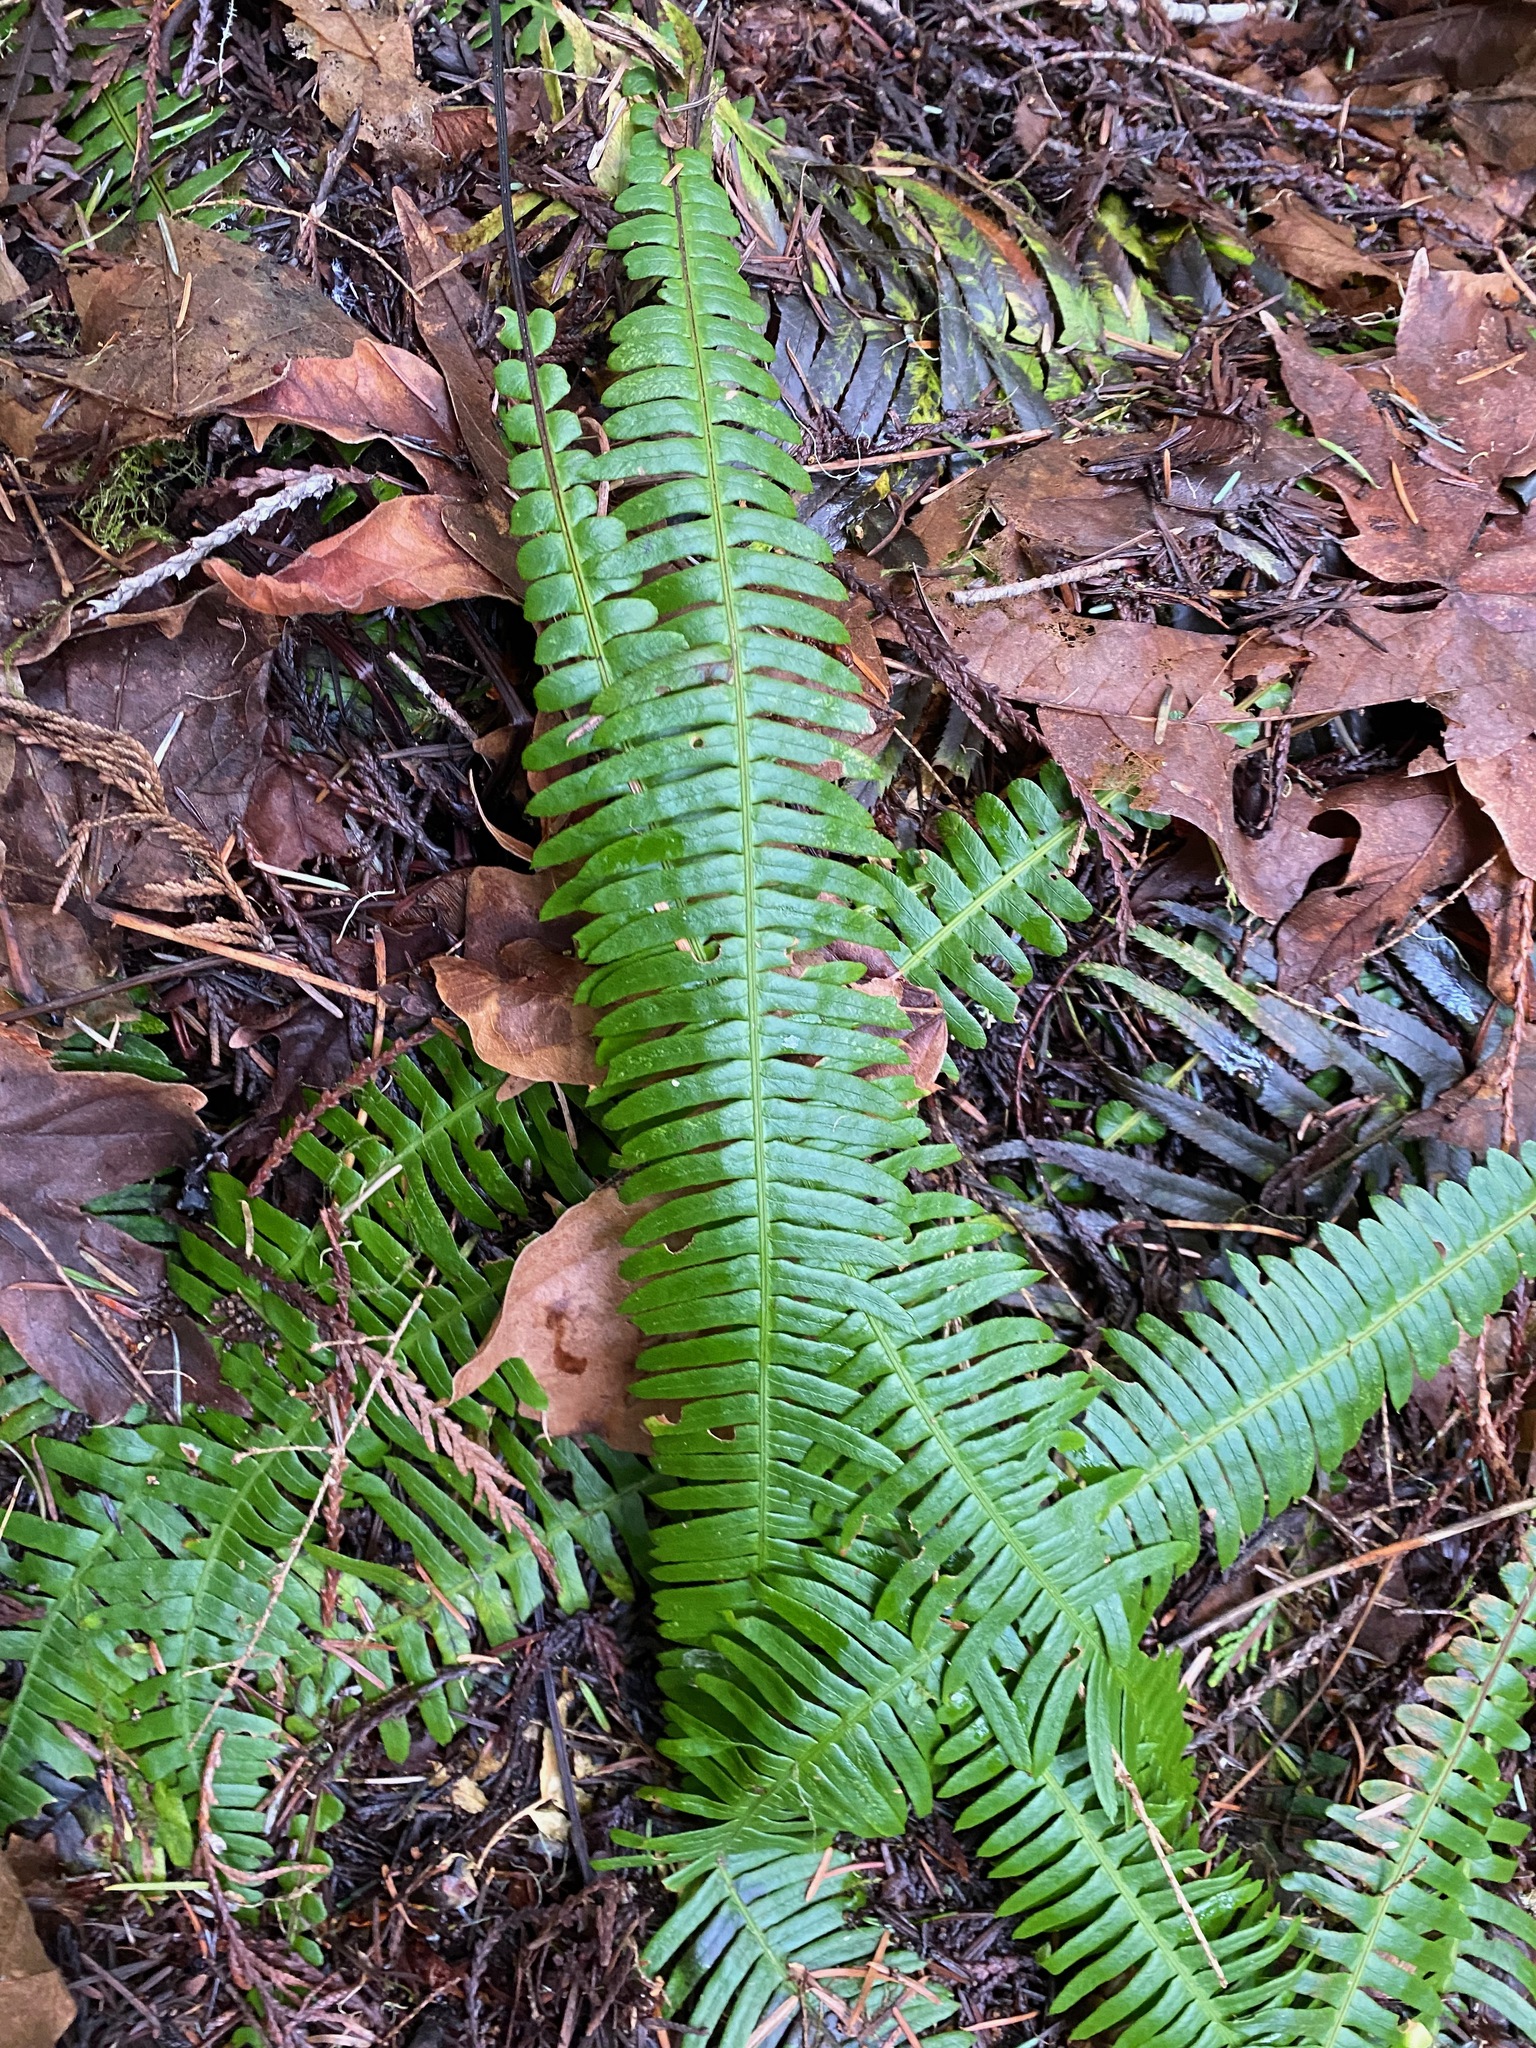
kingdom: Plantae
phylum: Tracheophyta
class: Polypodiopsida
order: Polypodiales
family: Blechnaceae
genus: Struthiopteris
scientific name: Struthiopteris spicant
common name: Deer fern
